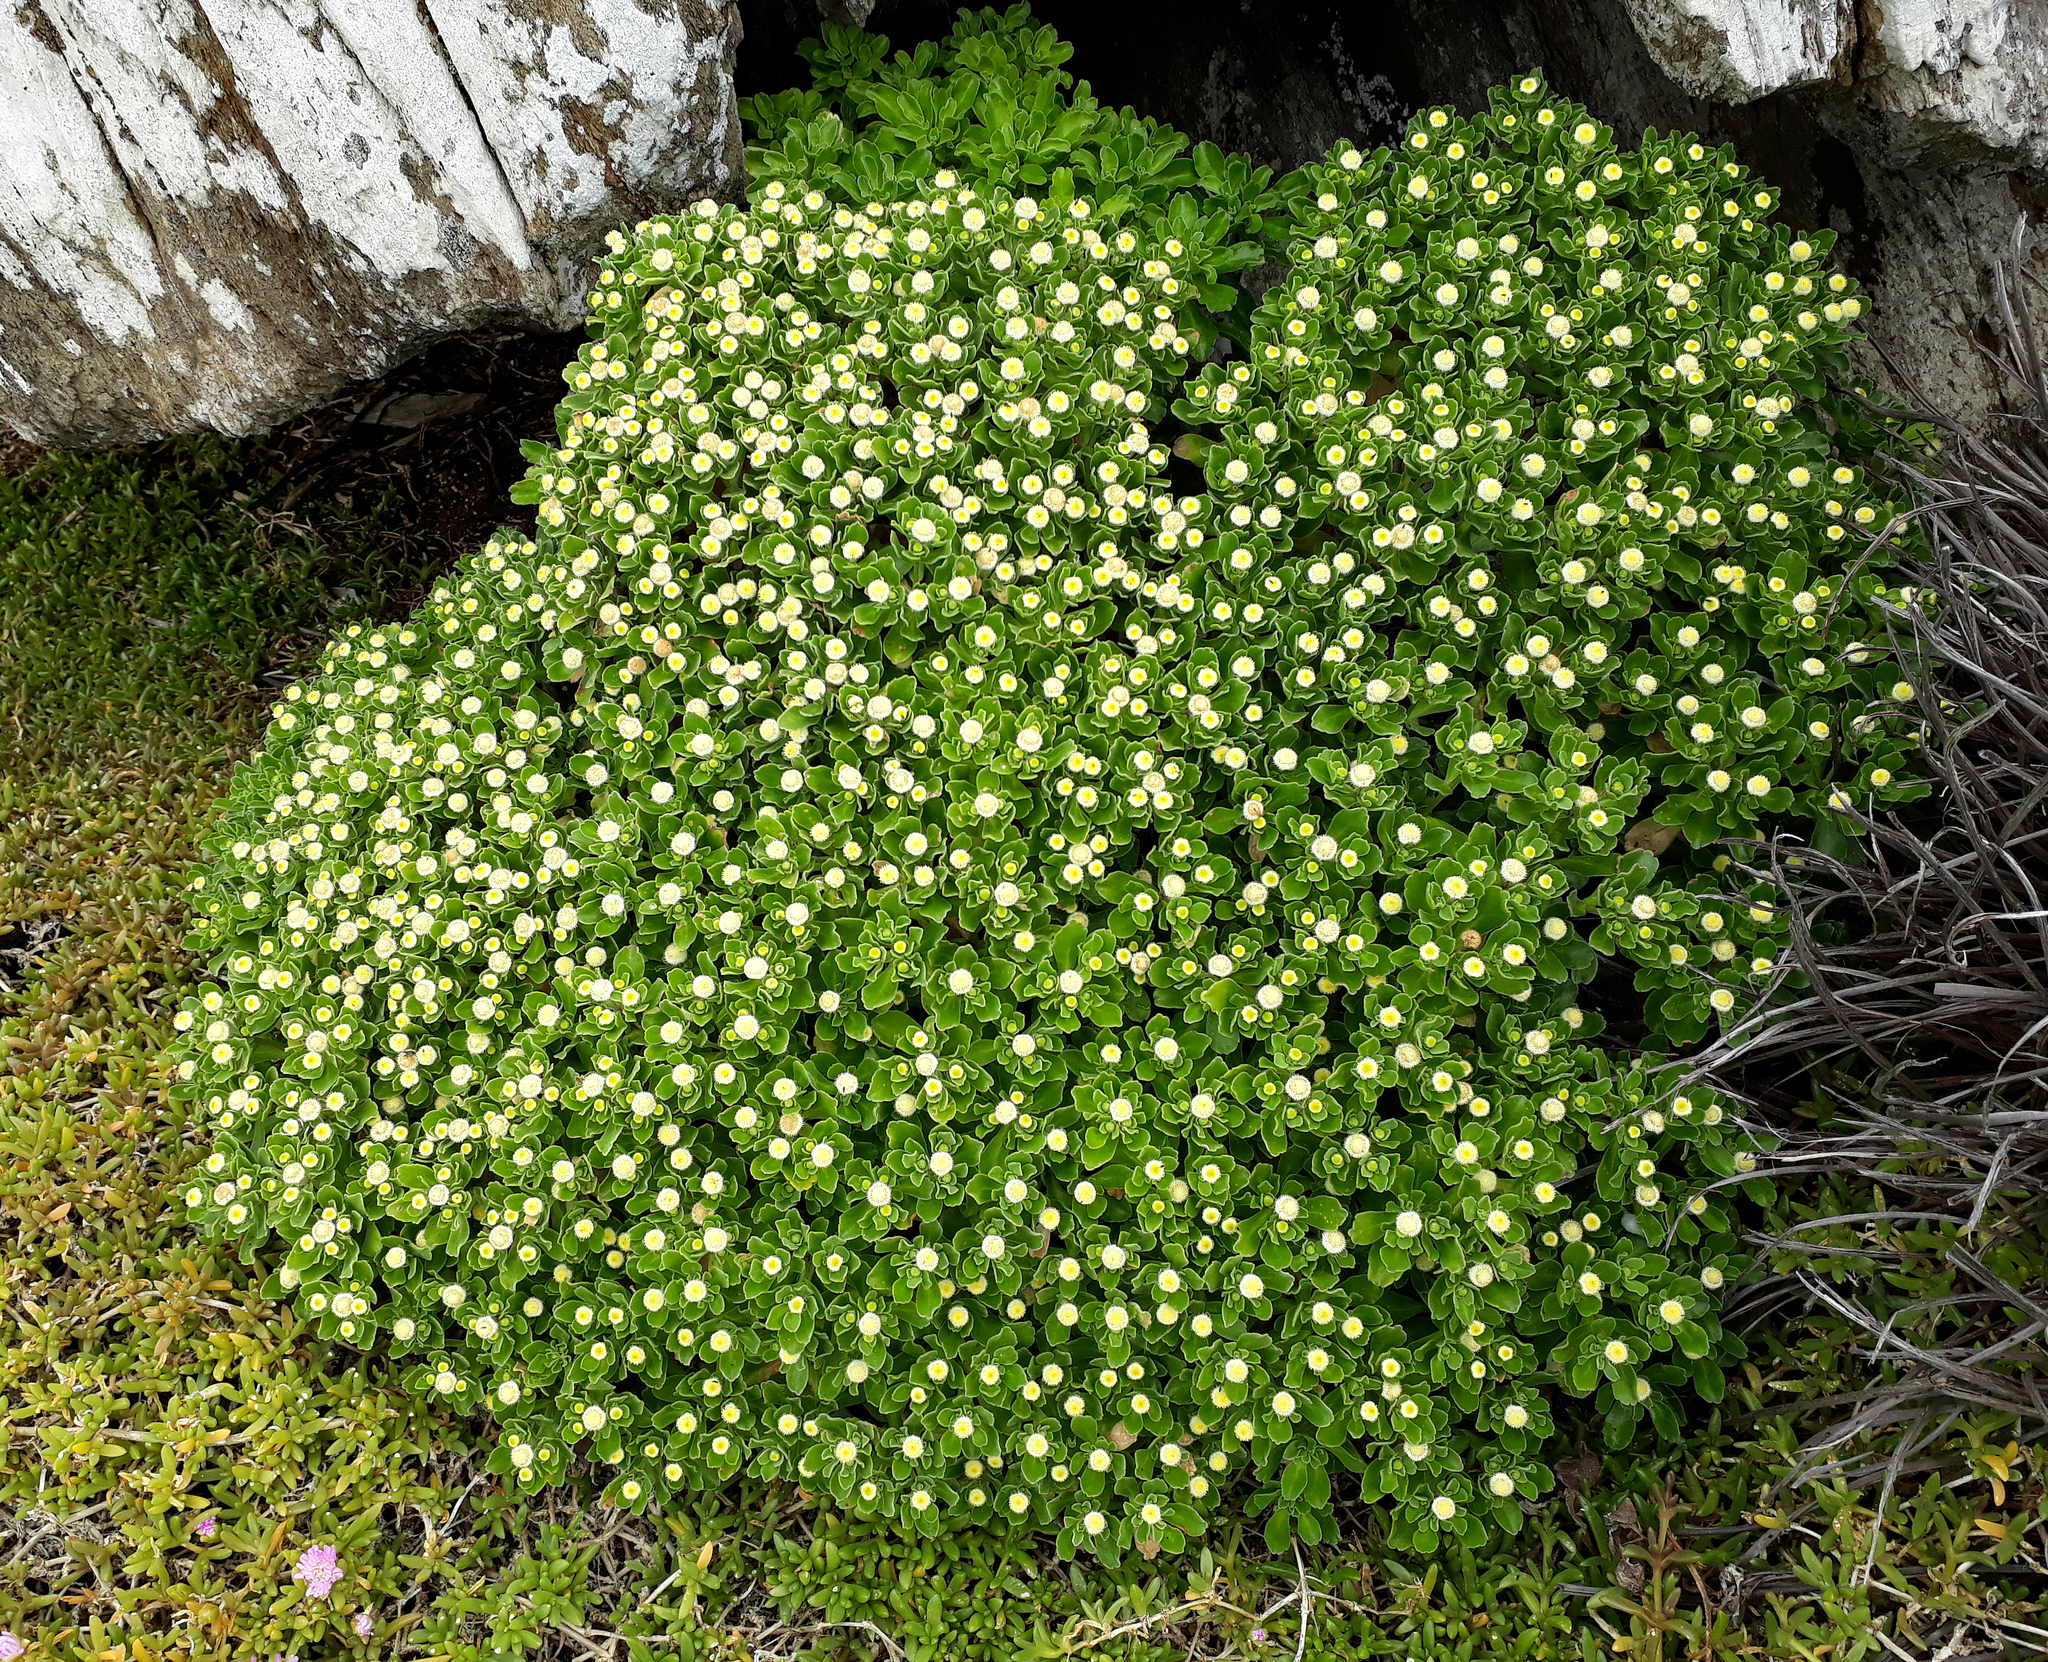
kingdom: Plantae
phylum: Tracheophyta
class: Magnoliopsida
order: Asterales
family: Asteraceae
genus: Leptinella
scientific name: Leptinella featherstonii
